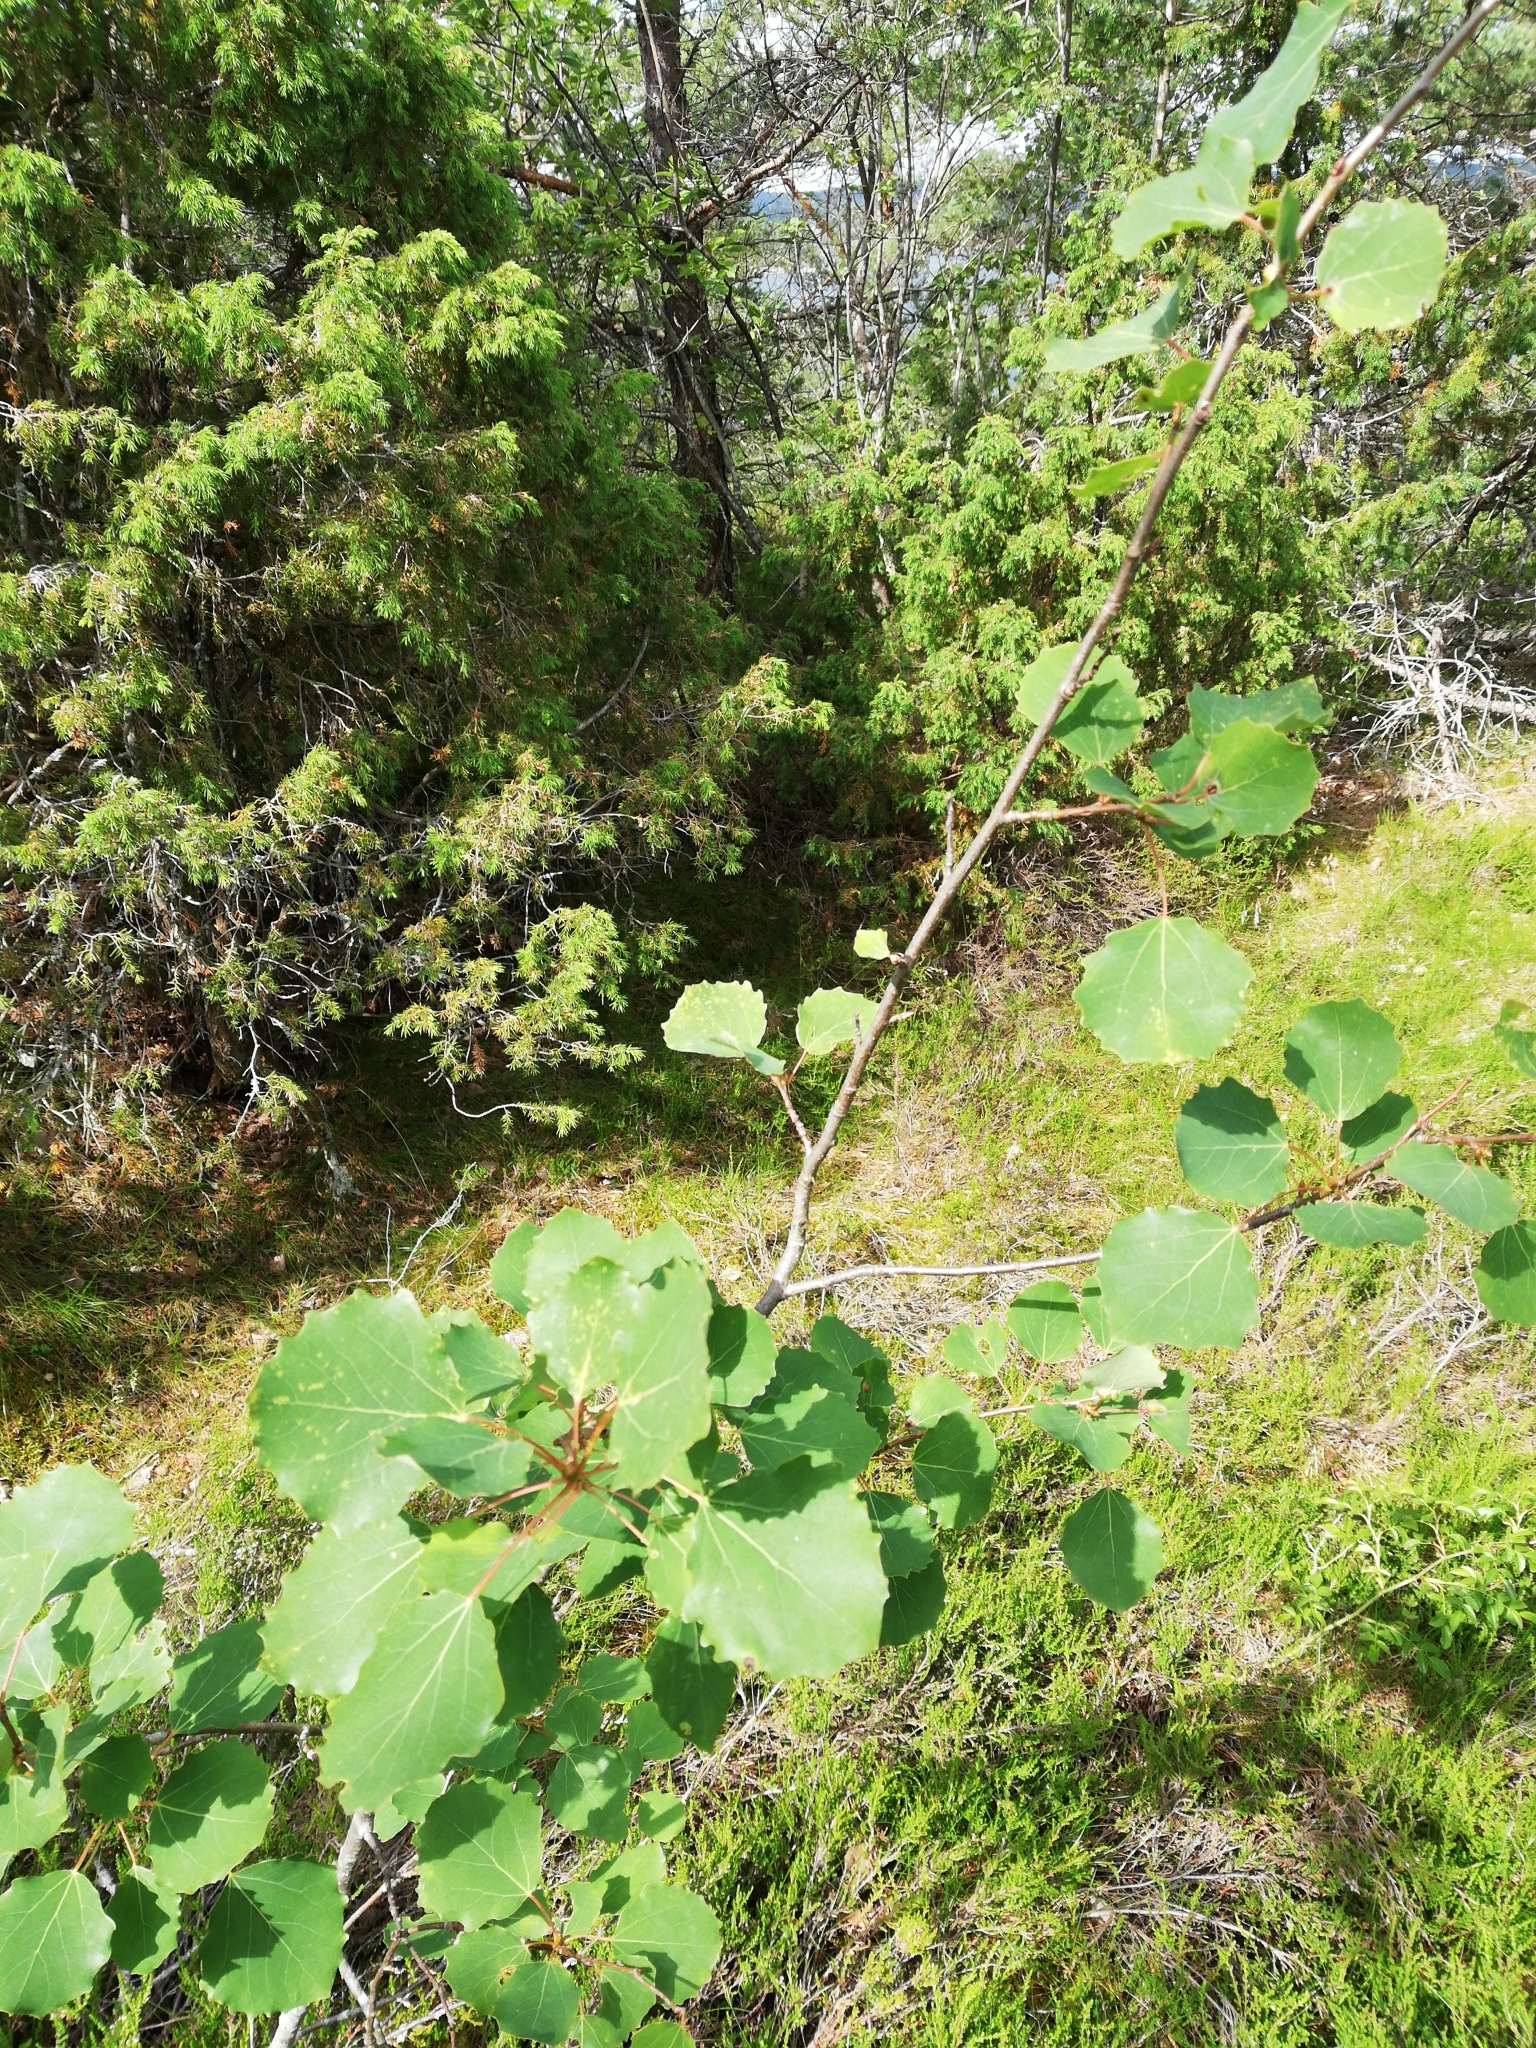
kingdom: Plantae
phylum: Tracheophyta
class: Magnoliopsida
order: Malpighiales
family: Salicaceae
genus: Populus
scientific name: Populus tremula
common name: European aspen
